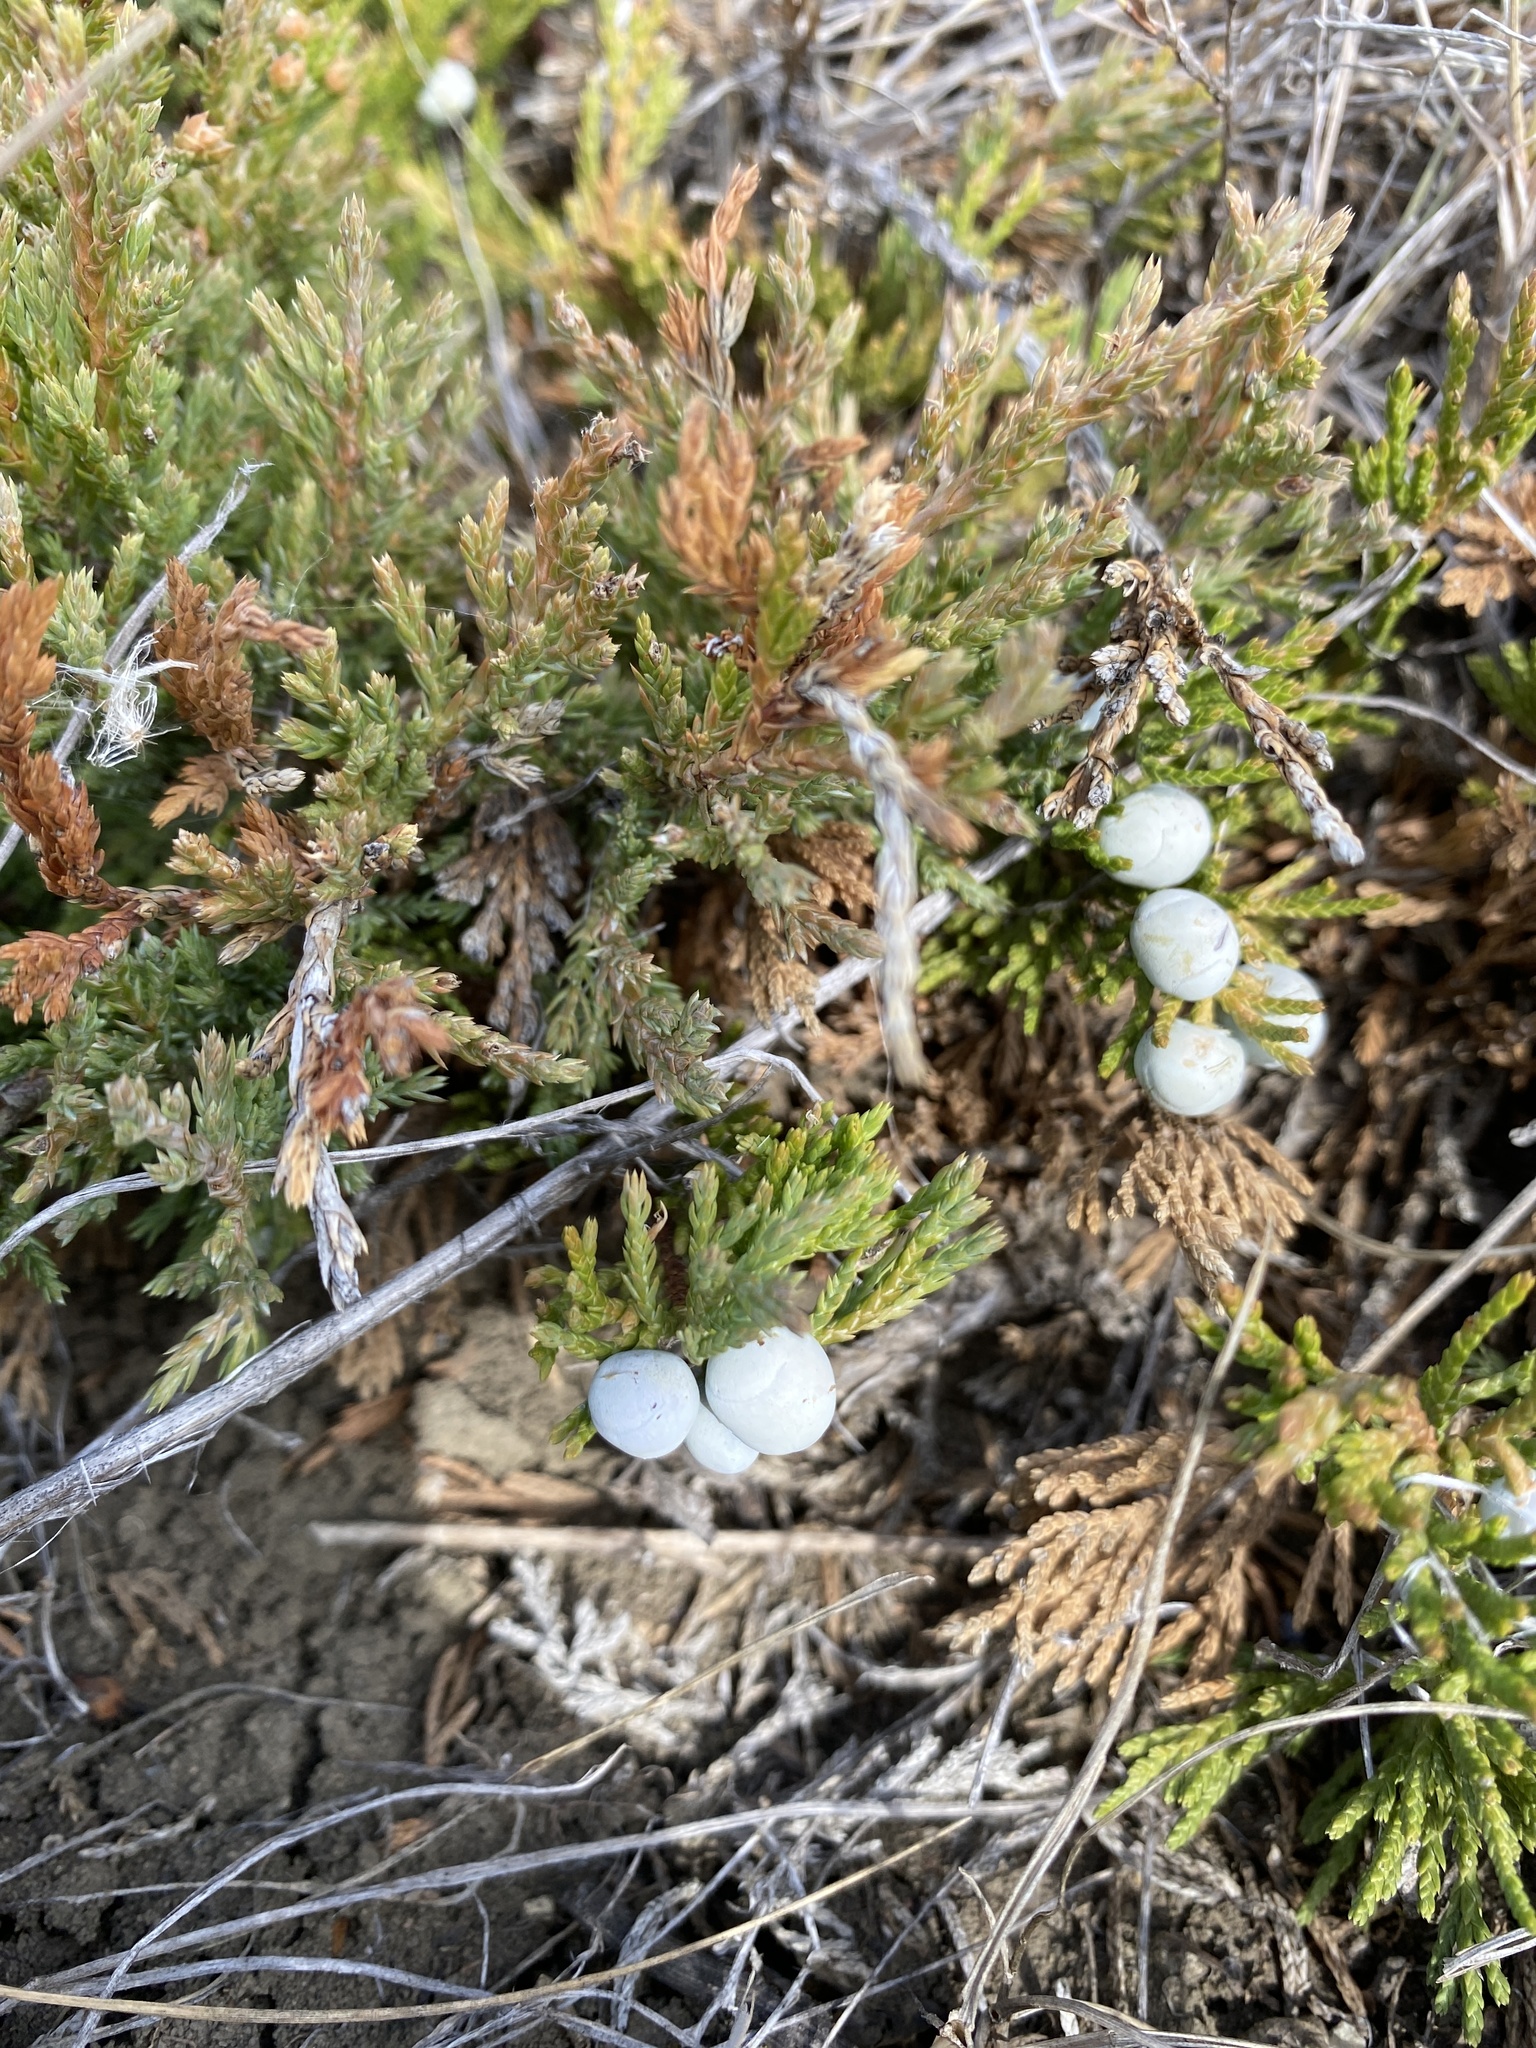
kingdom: Plantae
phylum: Tracheophyta
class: Pinopsida
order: Pinales
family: Cupressaceae
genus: Juniperus
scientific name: Juniperus horizontalis
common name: Creeping juniper
